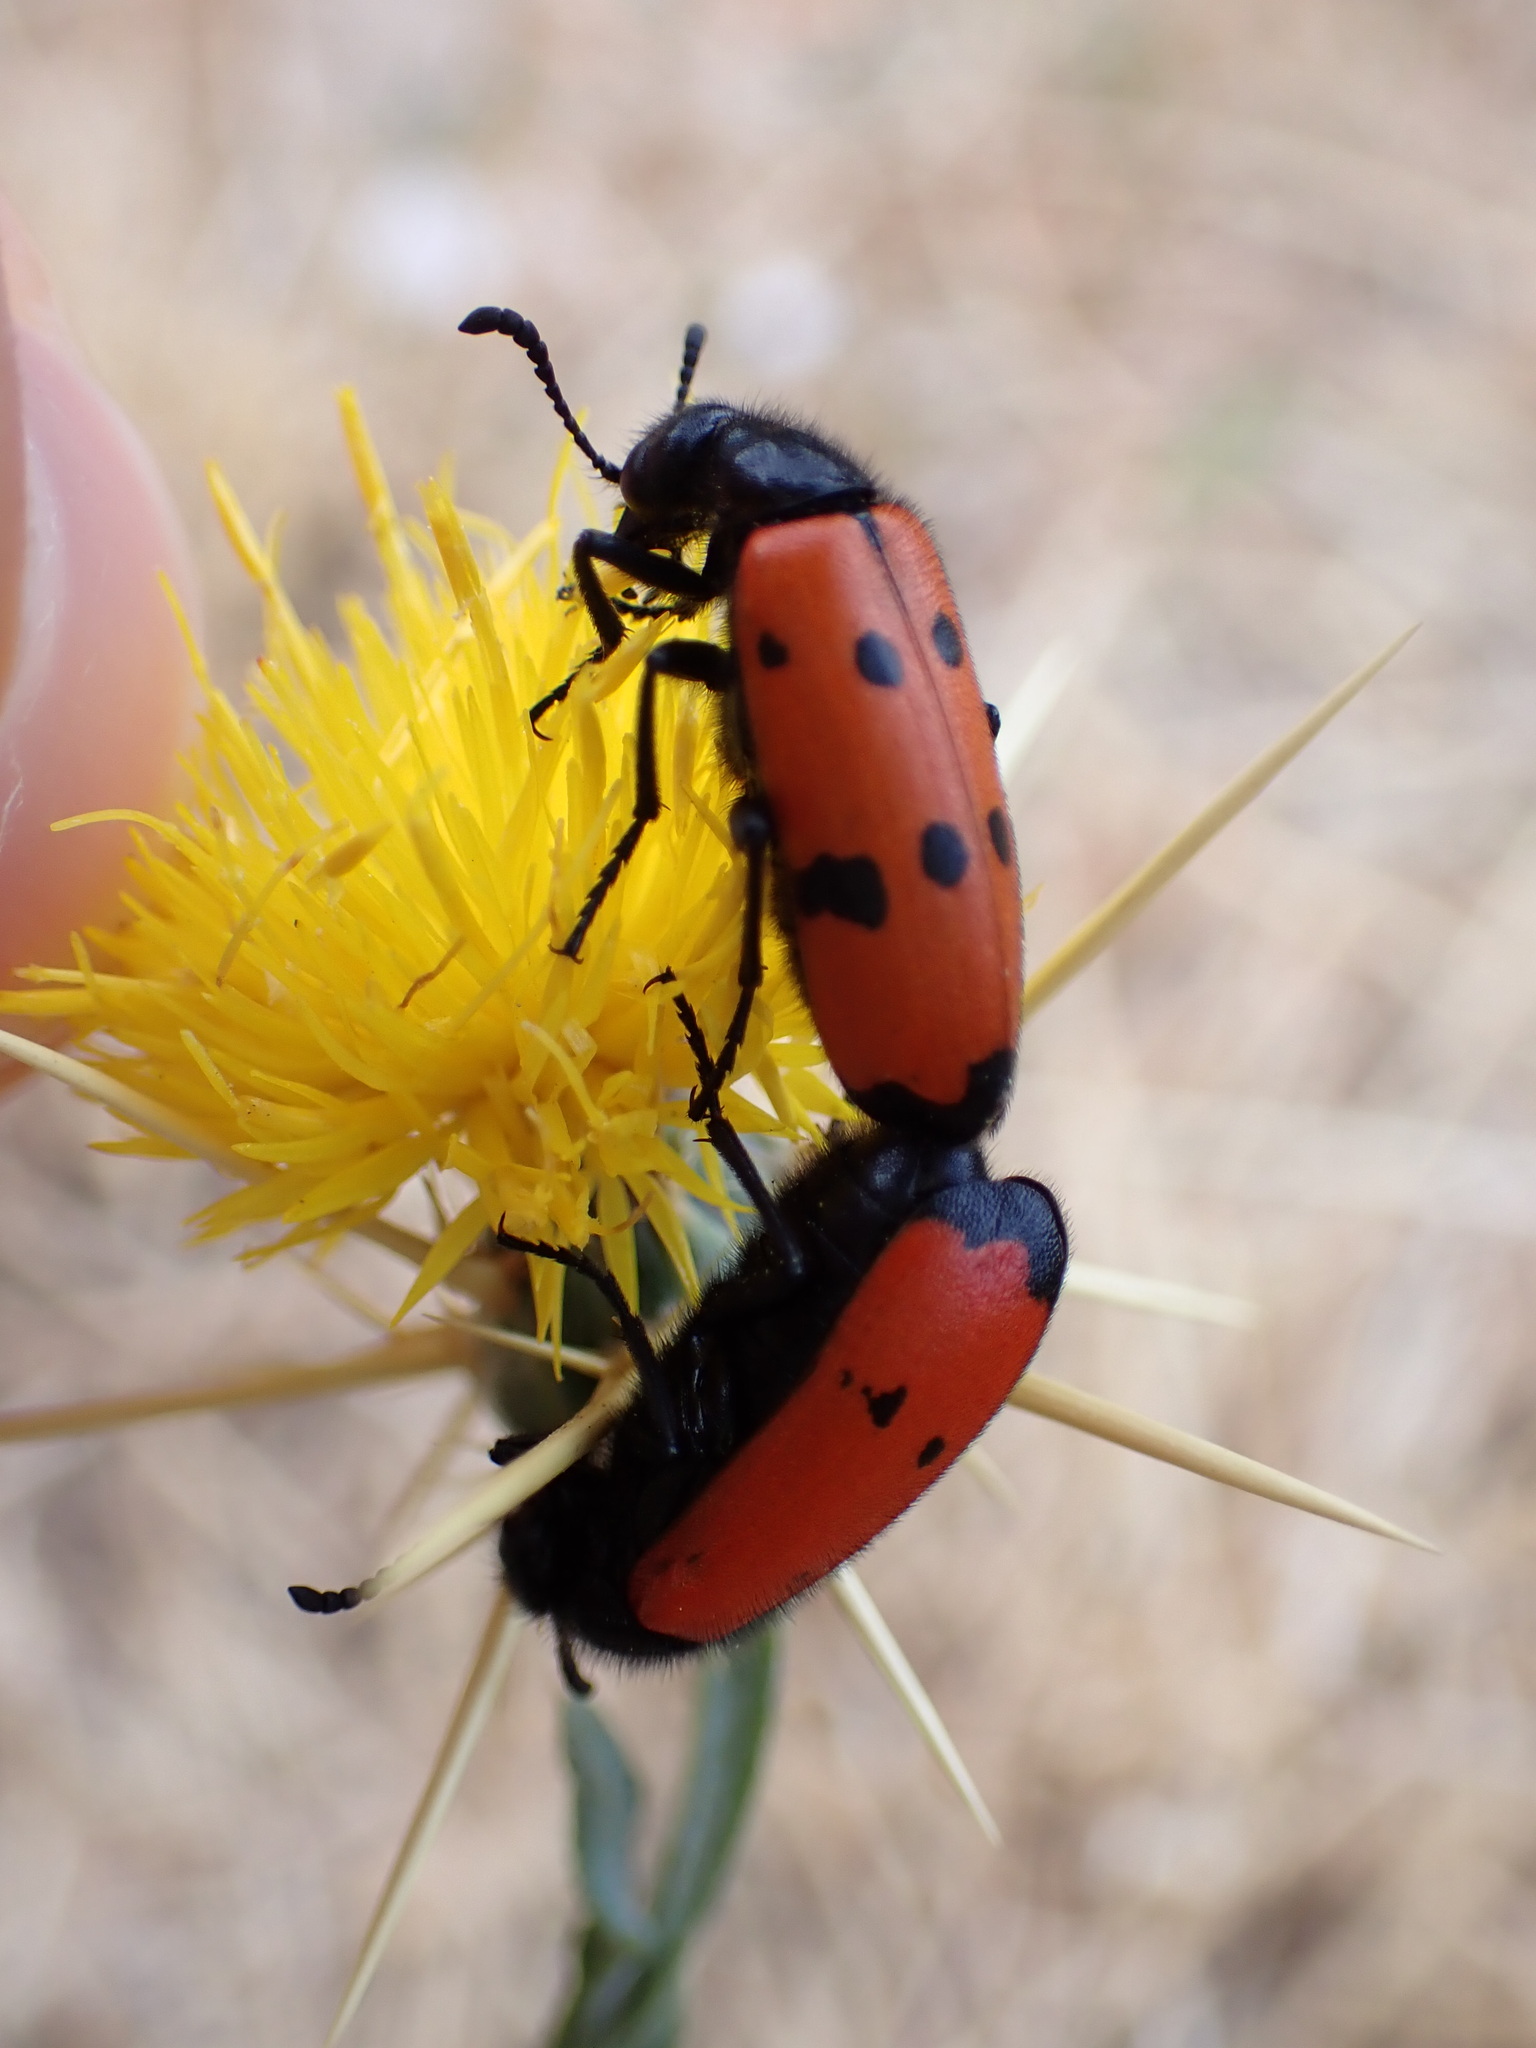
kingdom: Animalia
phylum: Arthropoda
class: Insecta
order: Coleoptera
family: Meloidae
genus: Mylabris
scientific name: Mylabris quadripunctata
